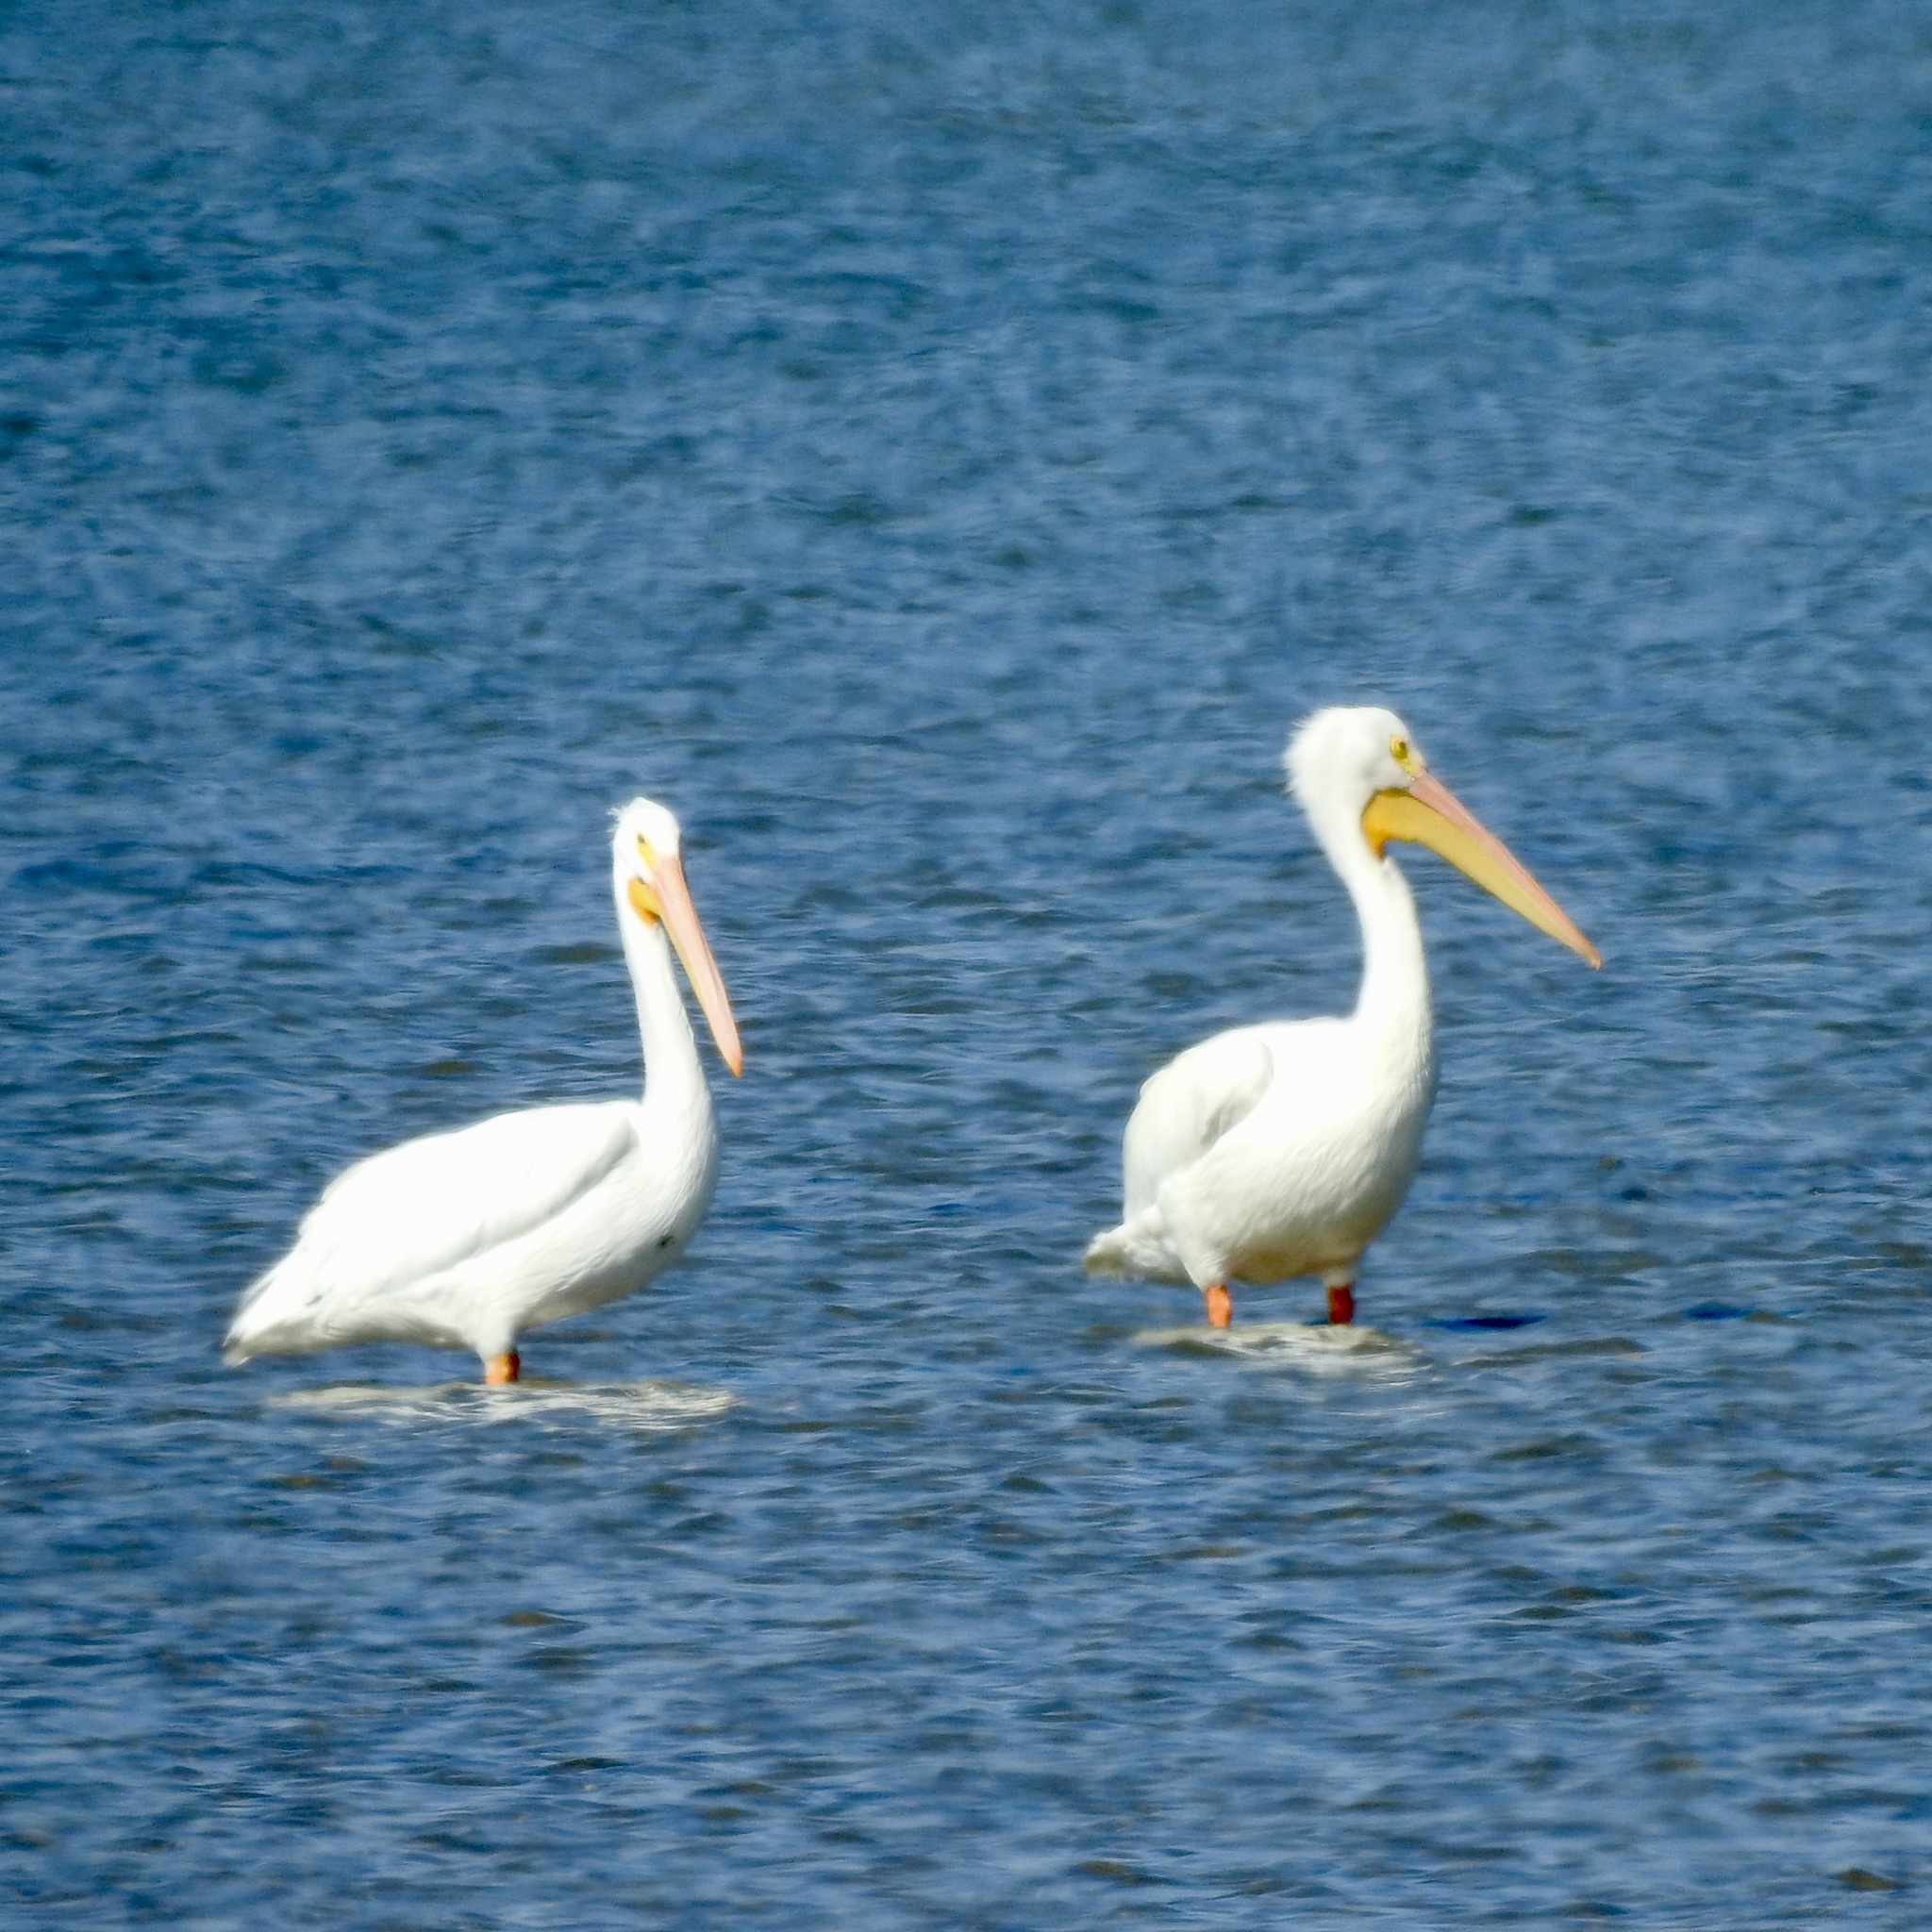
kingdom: Animalia
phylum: Chordata
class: Aves
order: Pelecaniformes
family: Pelecanidae
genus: Pelecanus
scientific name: Pelecanus erythrorhynchos
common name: American white pelican
